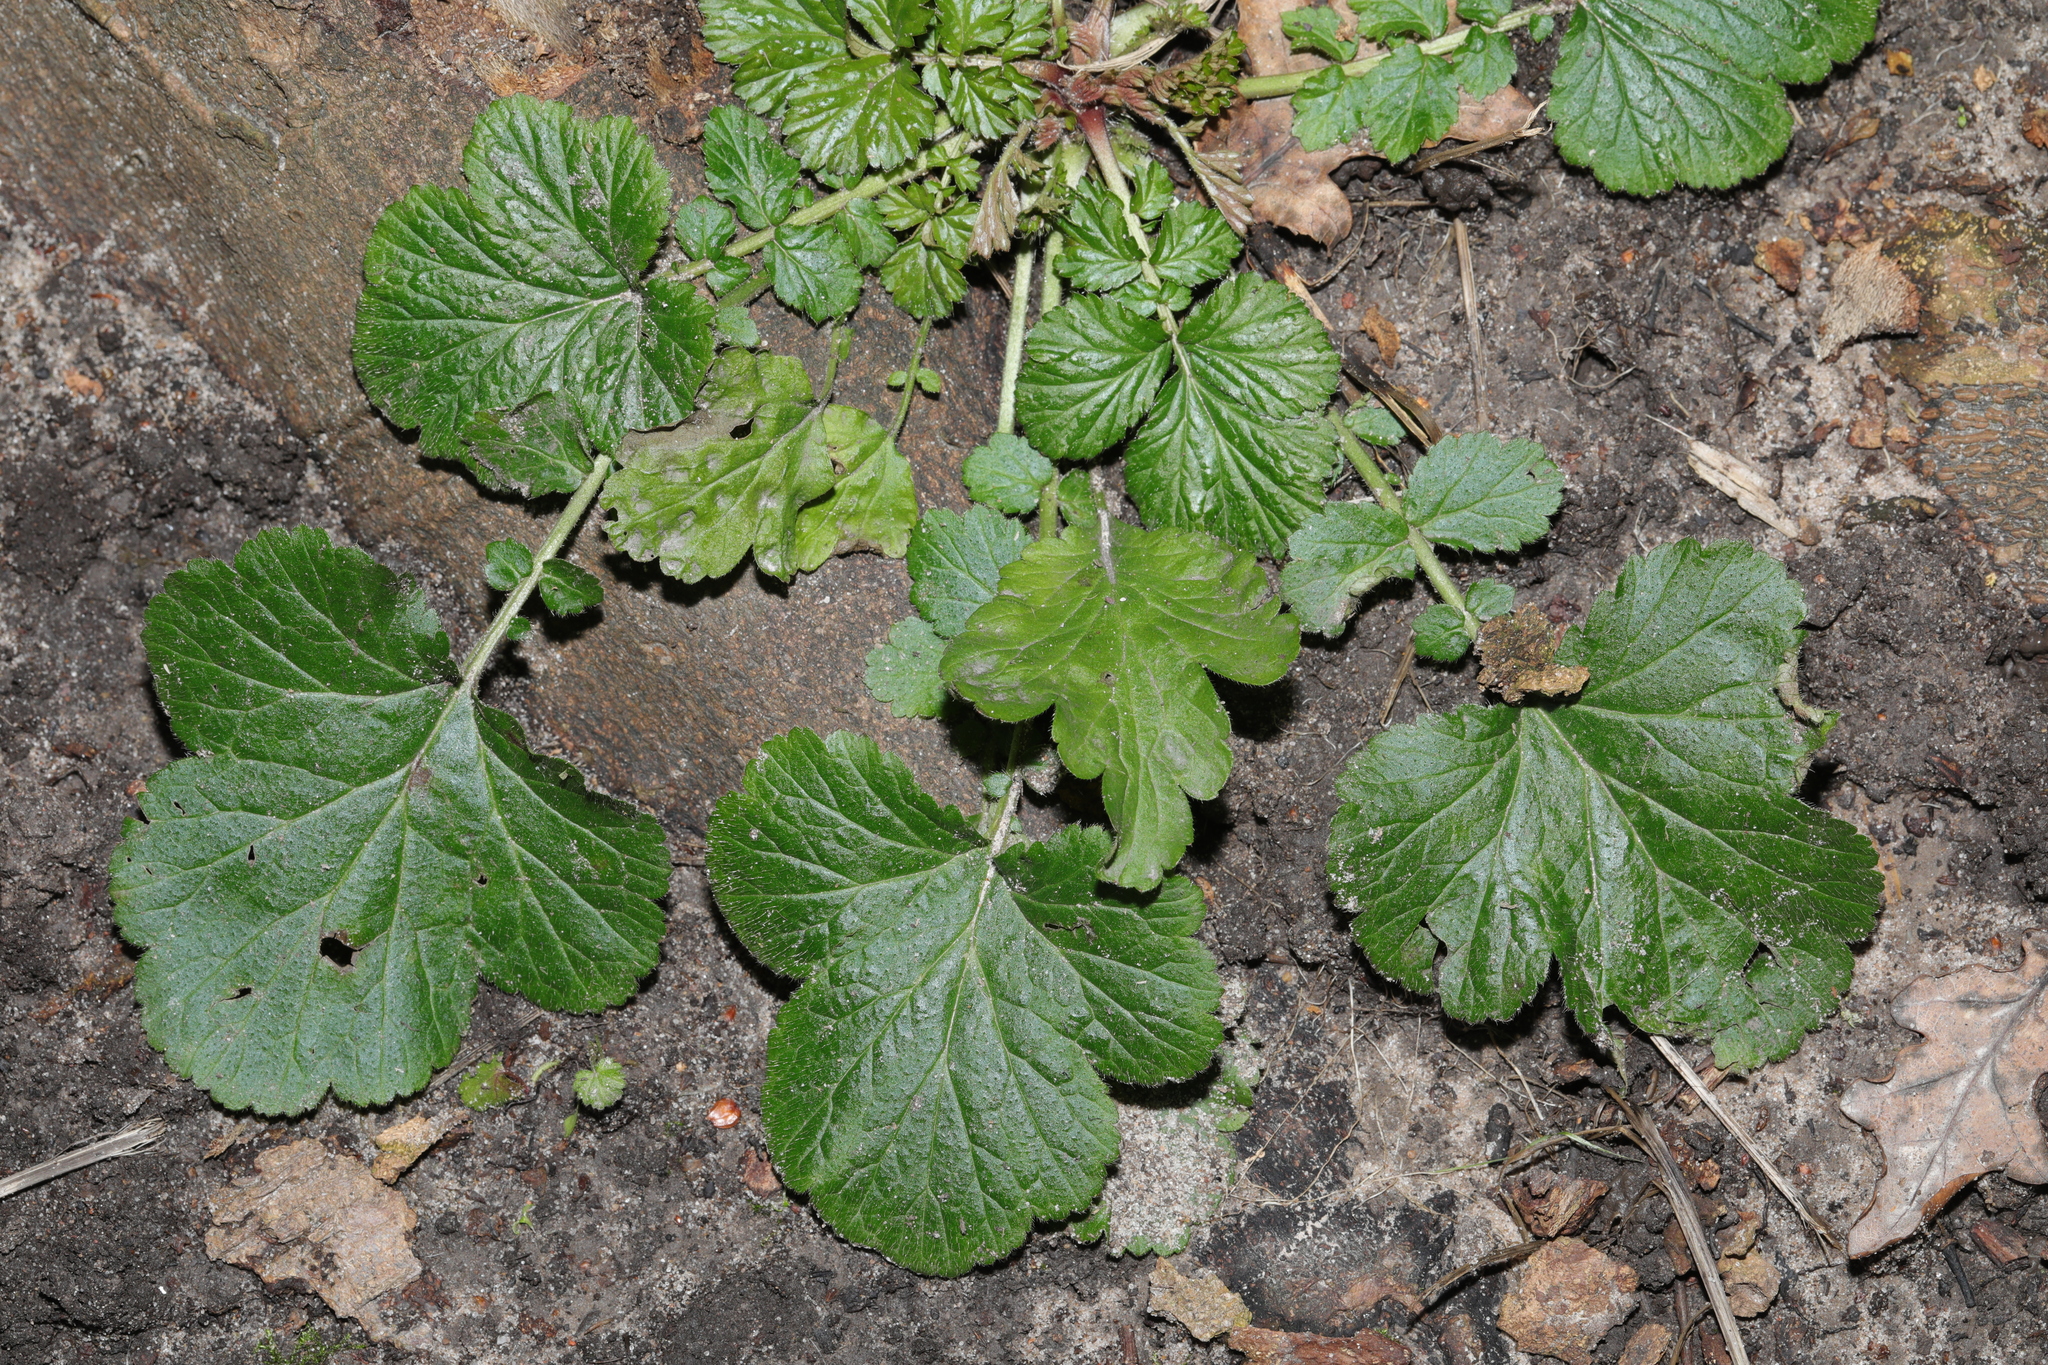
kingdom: Plantae
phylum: Tracheophyta
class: Magnoliopsida
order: Rosales
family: Rosaceae
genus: Geum
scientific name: Geum urbanum
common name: Wood avens
